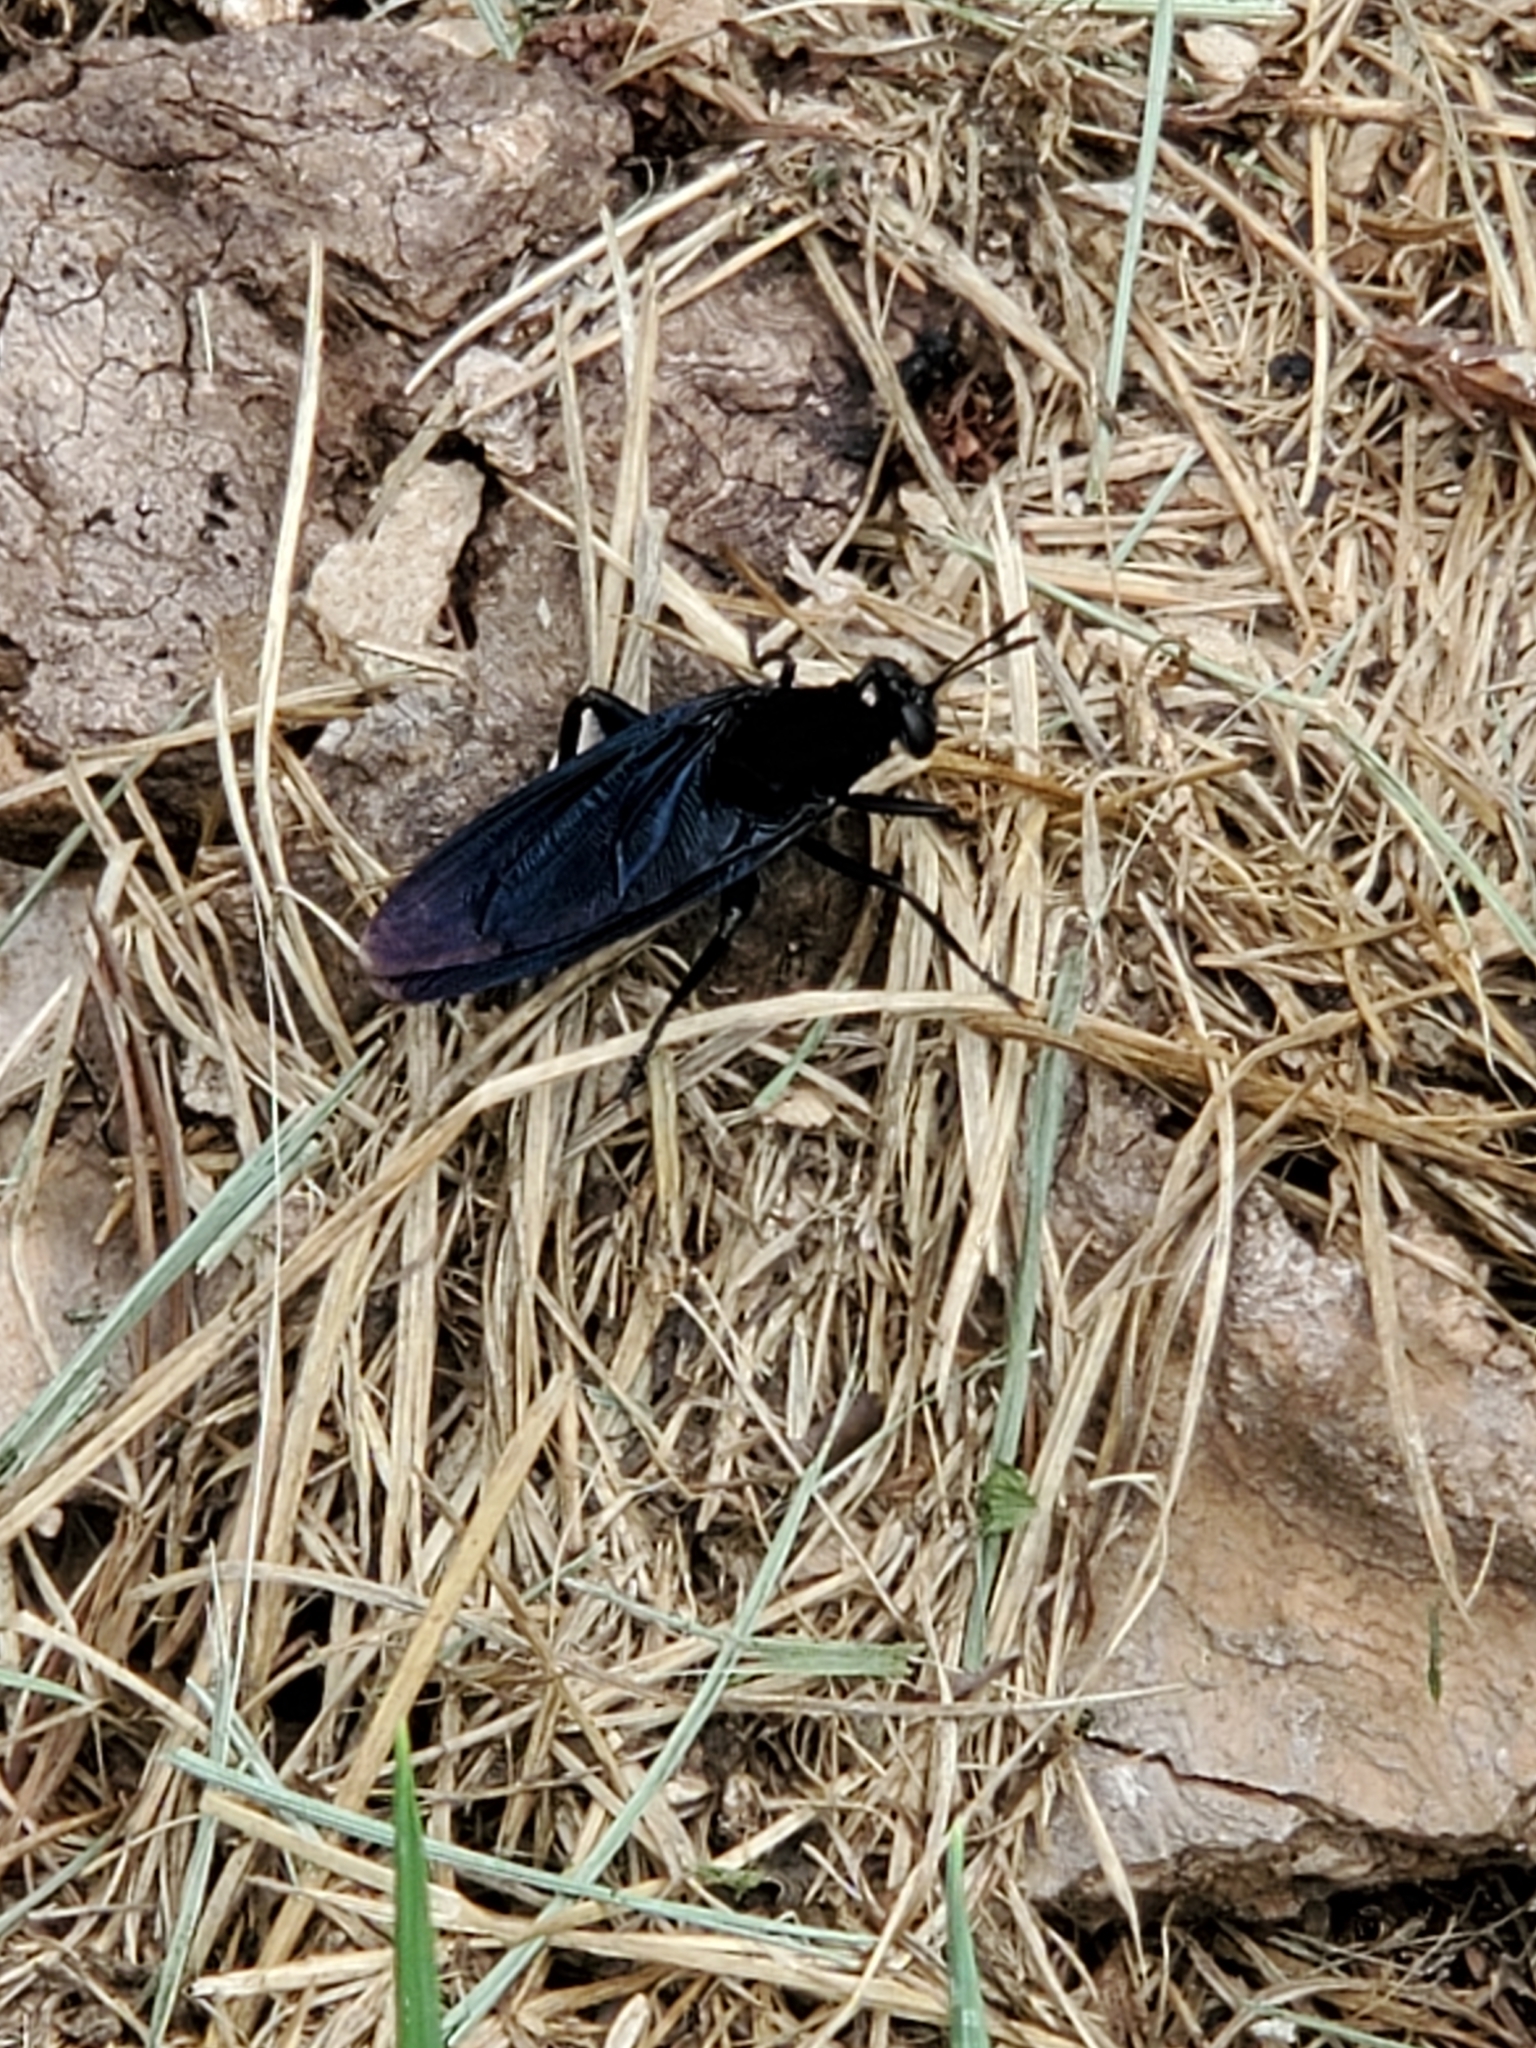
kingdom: Animalia
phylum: Arthropoda
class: Insecta
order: Diptera
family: Mydidae
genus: Mydas
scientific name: Mydas clavatus
